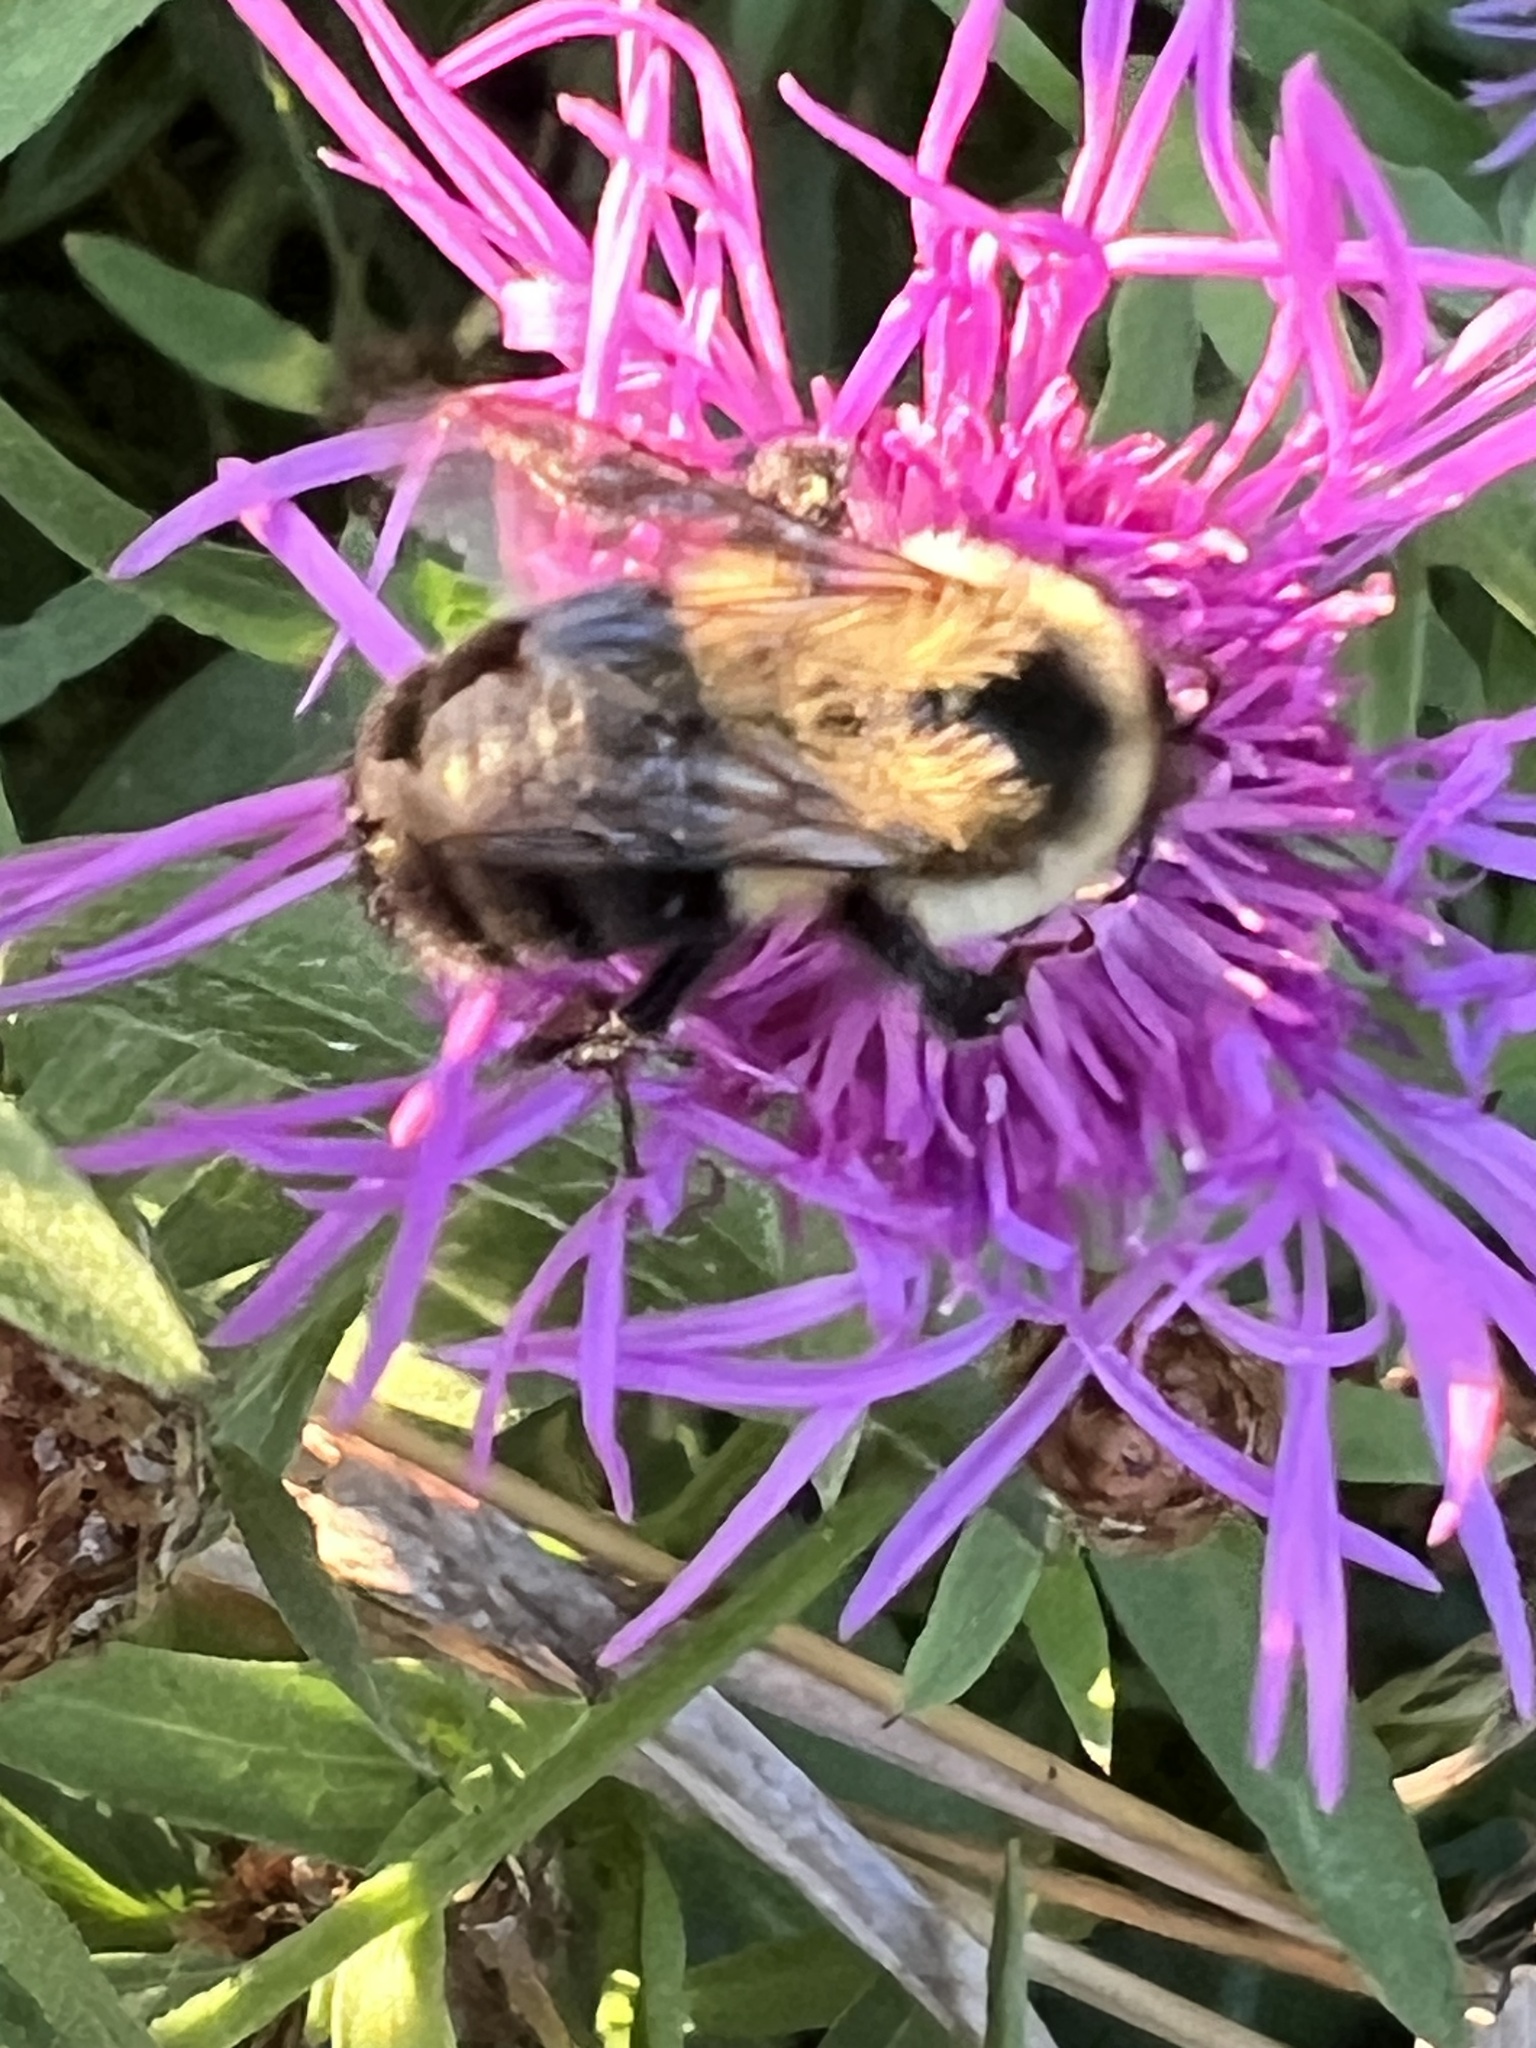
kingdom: Animalia
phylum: Arthropoda
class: Insecta
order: Hymenoptera
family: Apidae
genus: Bombus
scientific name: Bombus impatiens
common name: Common eastern bumble bee
